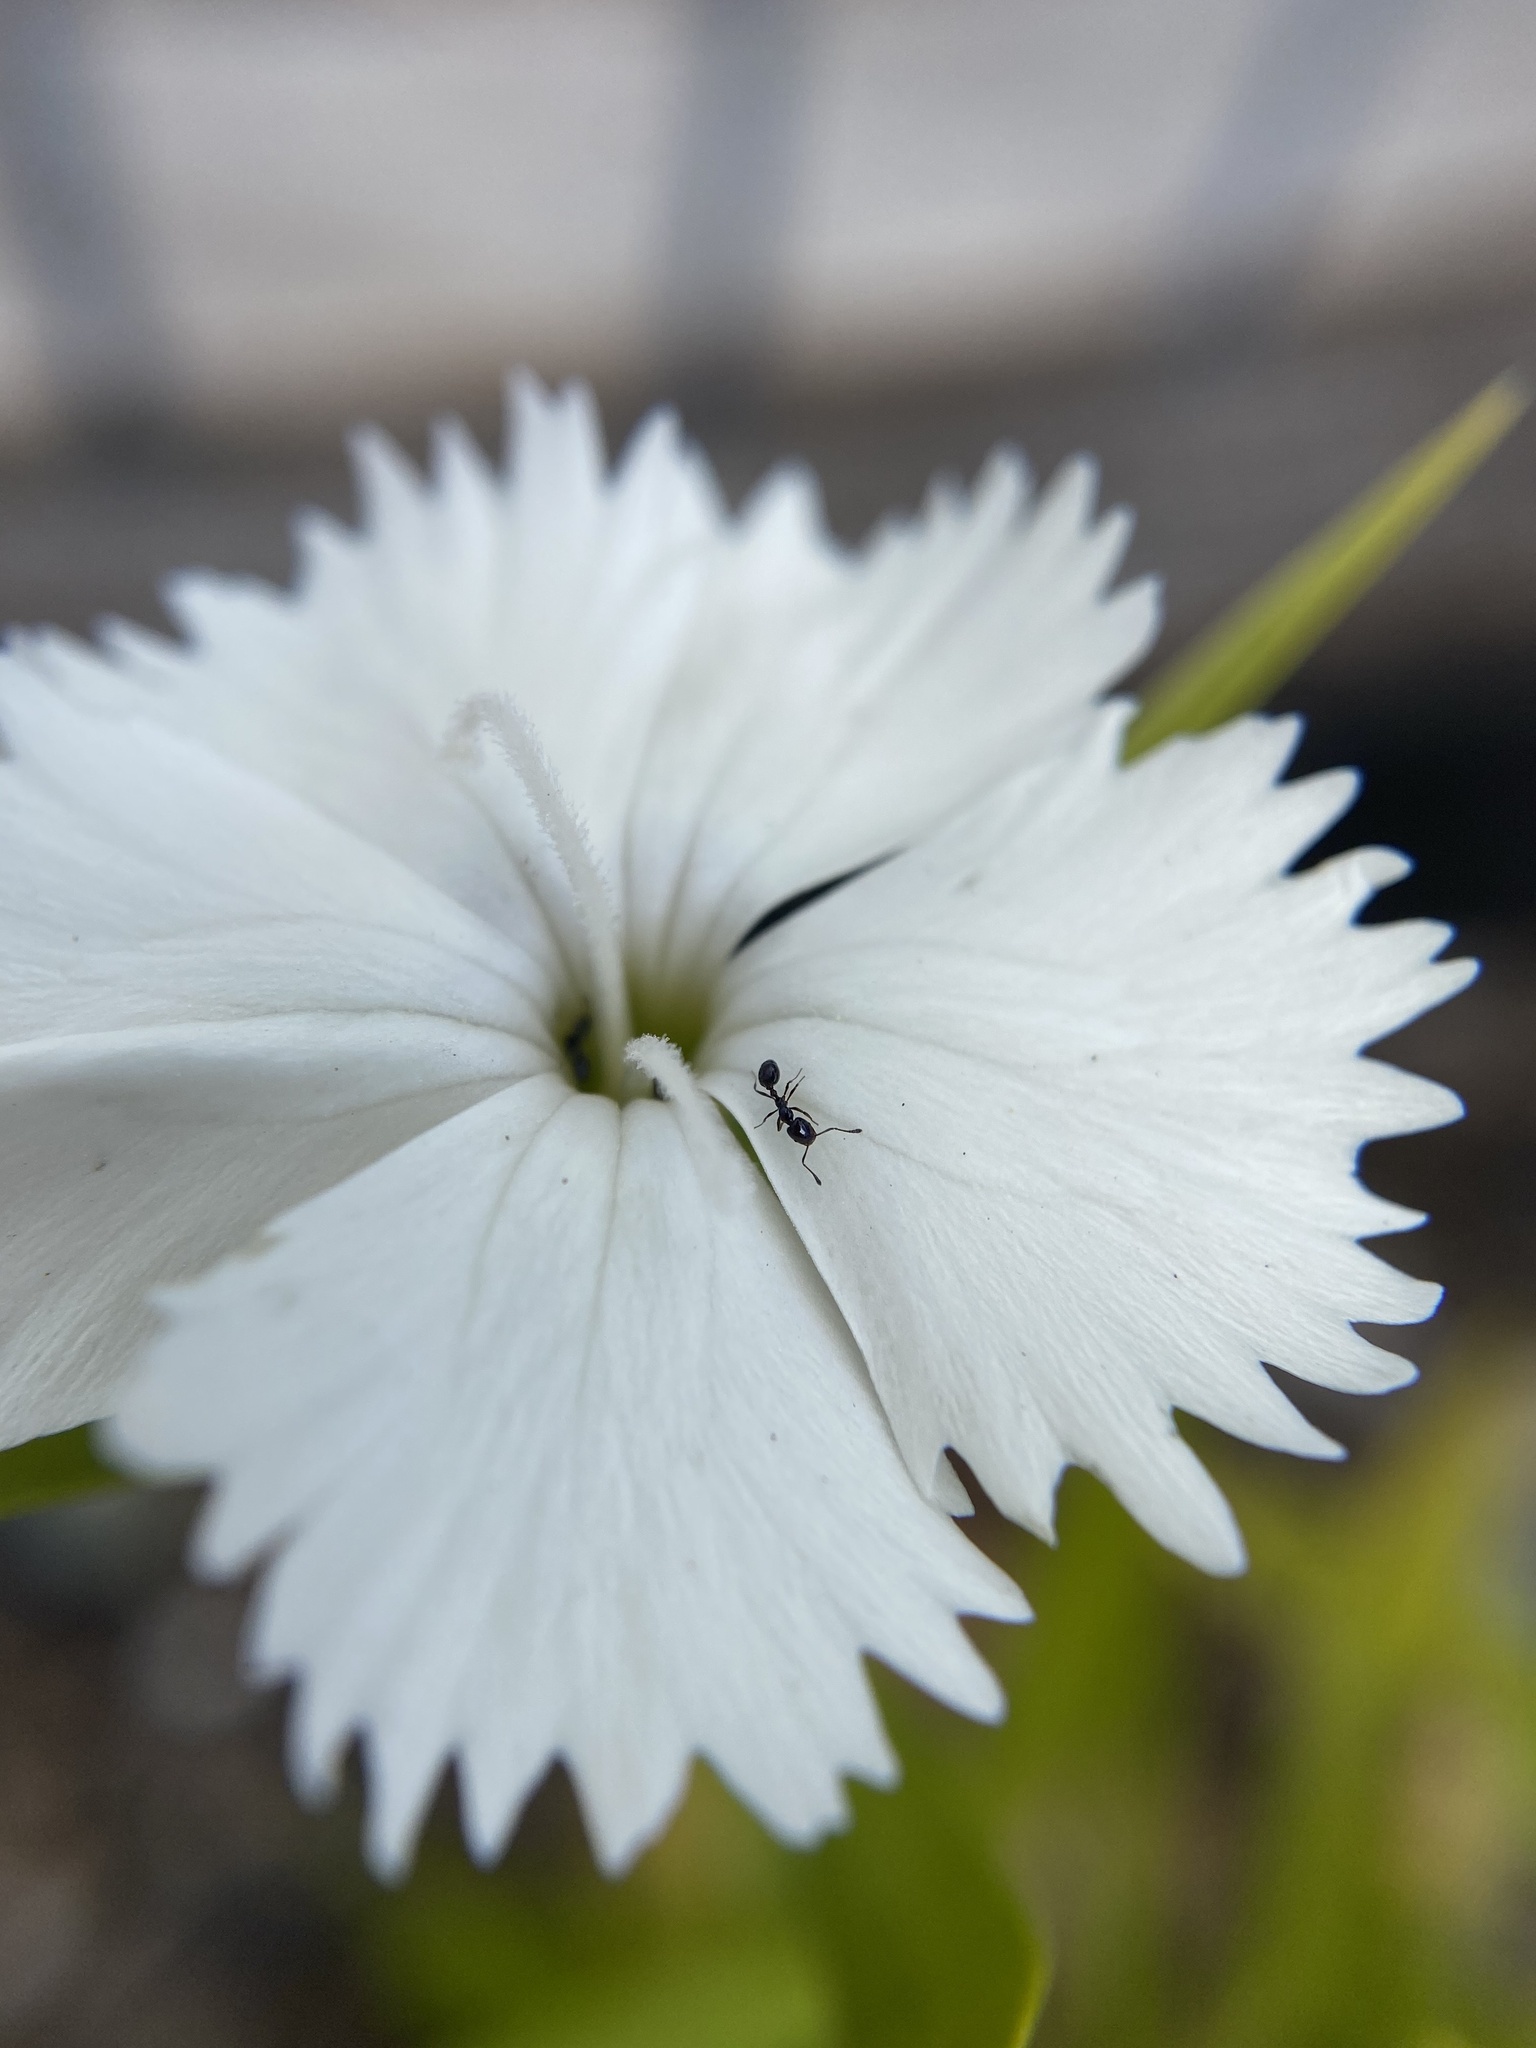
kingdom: Animalia
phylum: Arthropoda
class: Insecta
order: Hymenoptera
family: Formicidae
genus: Monomorium
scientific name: Monomorium ergatogyna
